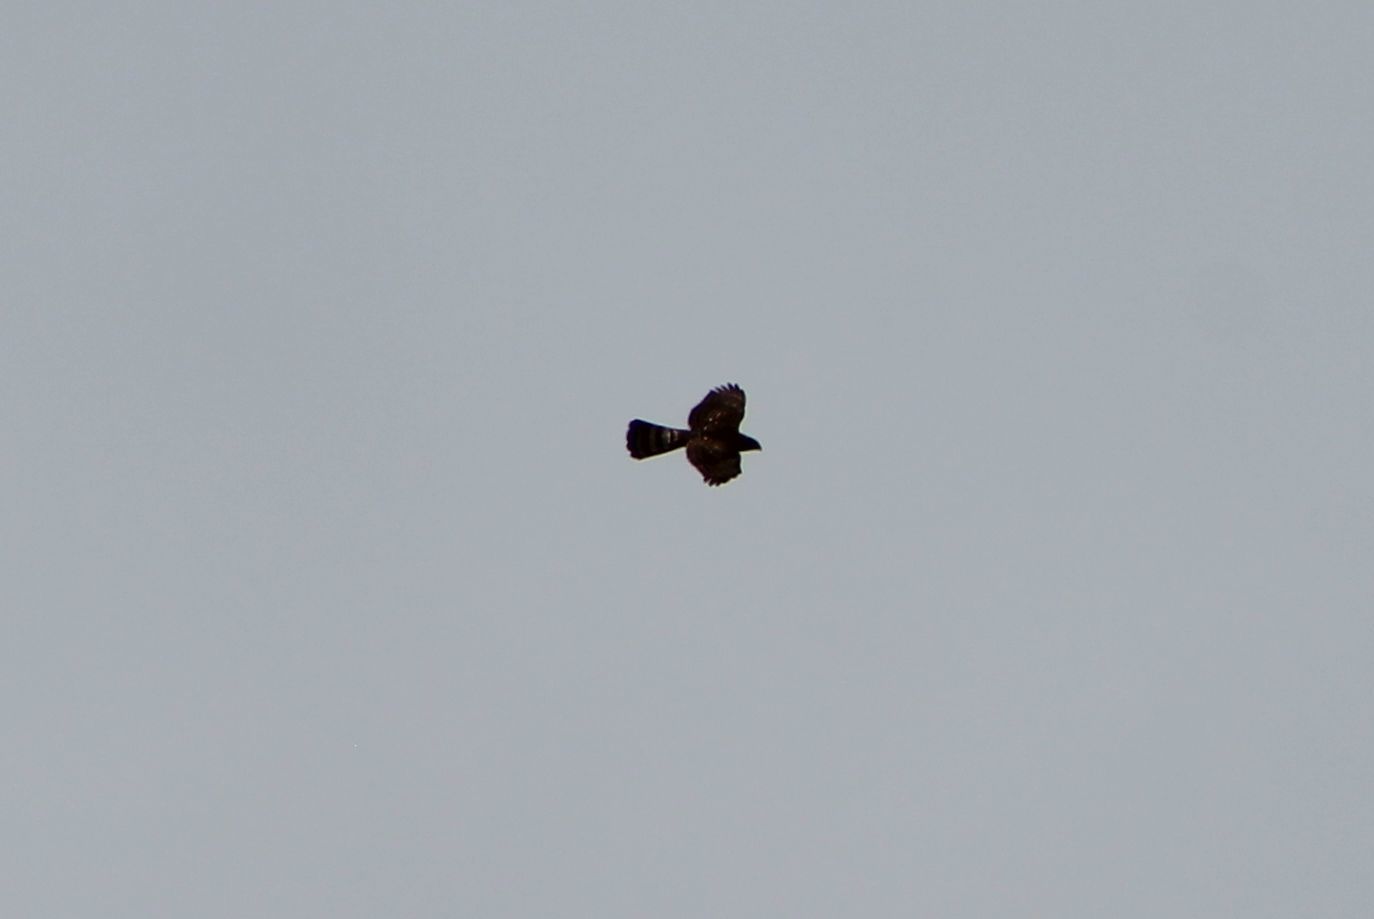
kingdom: Animalia
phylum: Chordata
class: Aves
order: Accipitriformes
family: Accipitridae
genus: Accipiter
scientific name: Accipiter striatus
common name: Sharp-shinned hawk
